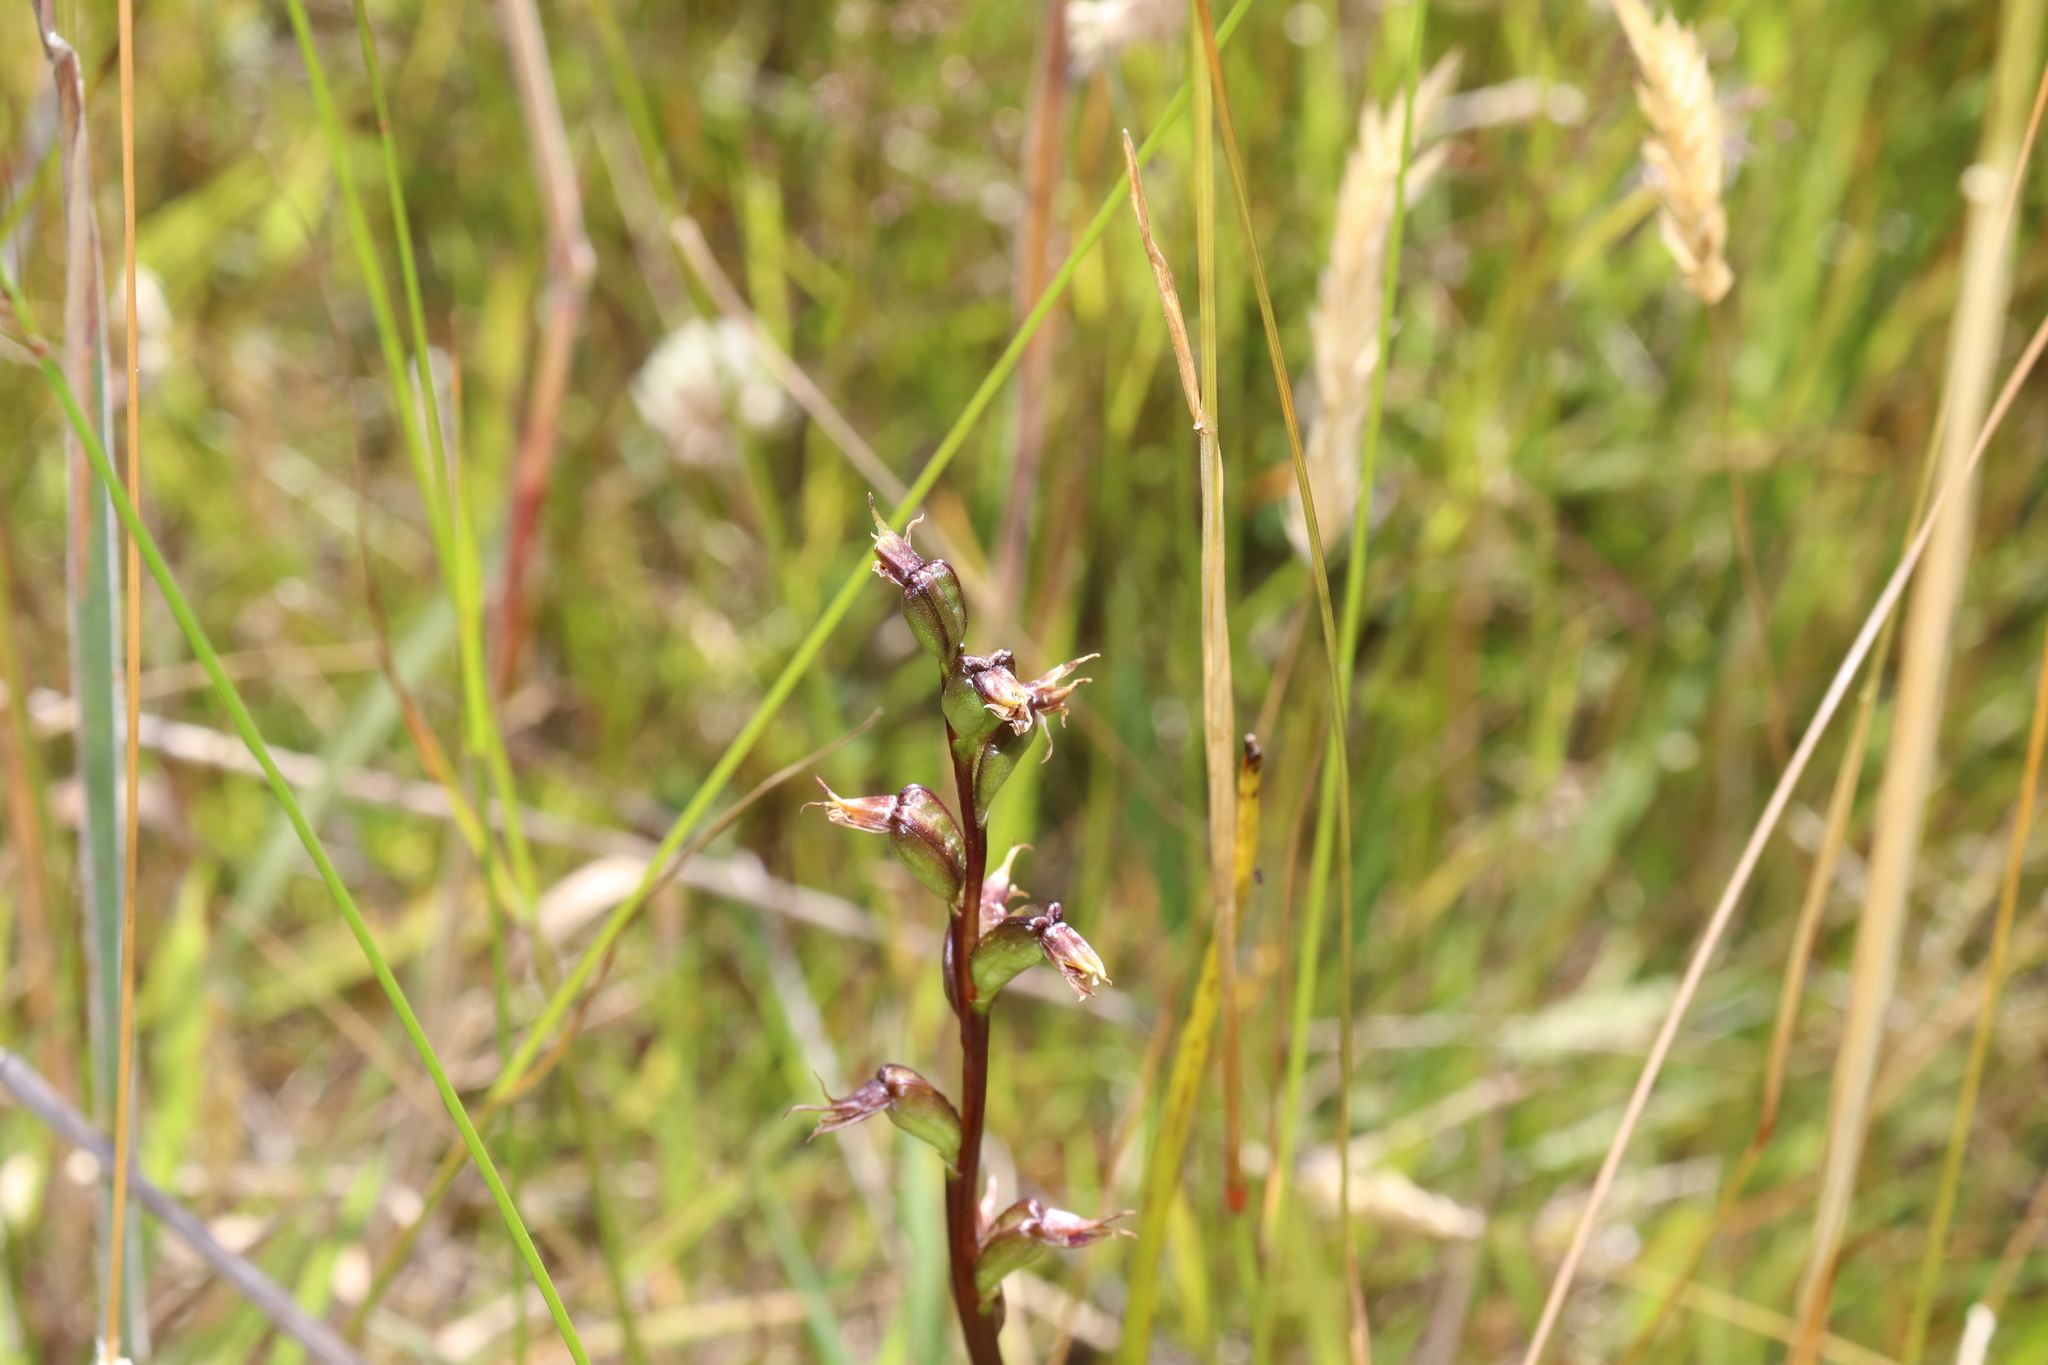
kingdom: Plantae
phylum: Tracheophyta
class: Liliopsida
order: Asparagales
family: Orchidaceae
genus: Prasophyllum
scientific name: Prasophyllum colensoi
